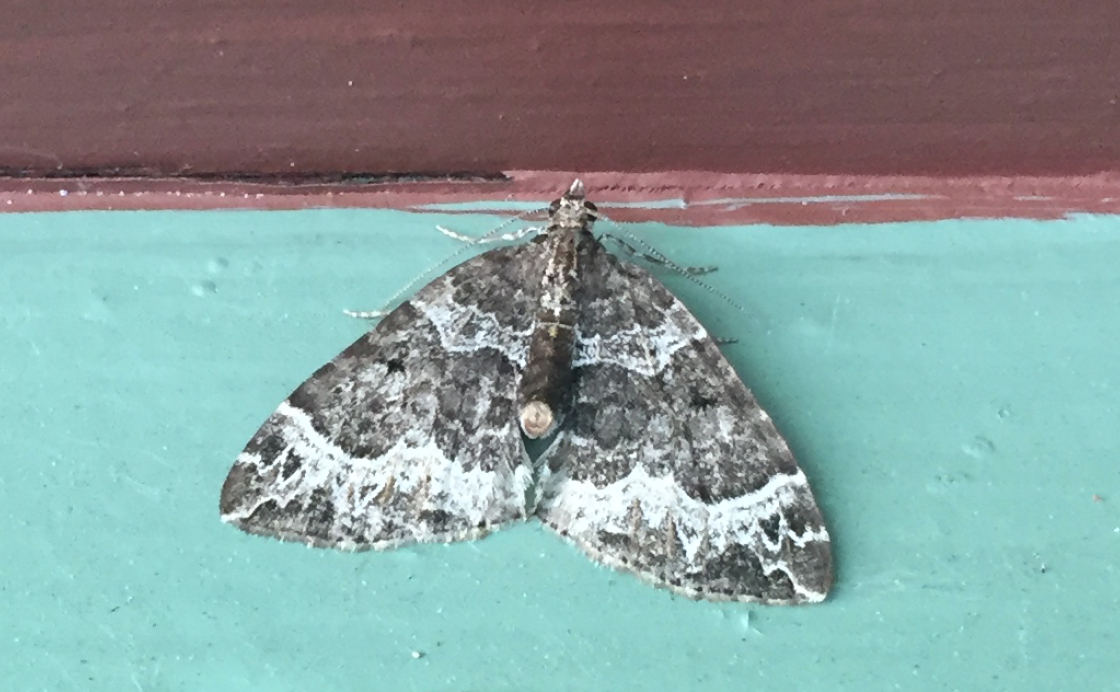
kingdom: Animalia
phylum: Arthropoda
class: Insecta
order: Lepidoptera
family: Geometridae
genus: Ecliptopera
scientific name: Ecliptopera silaceata
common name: Small phoenix
